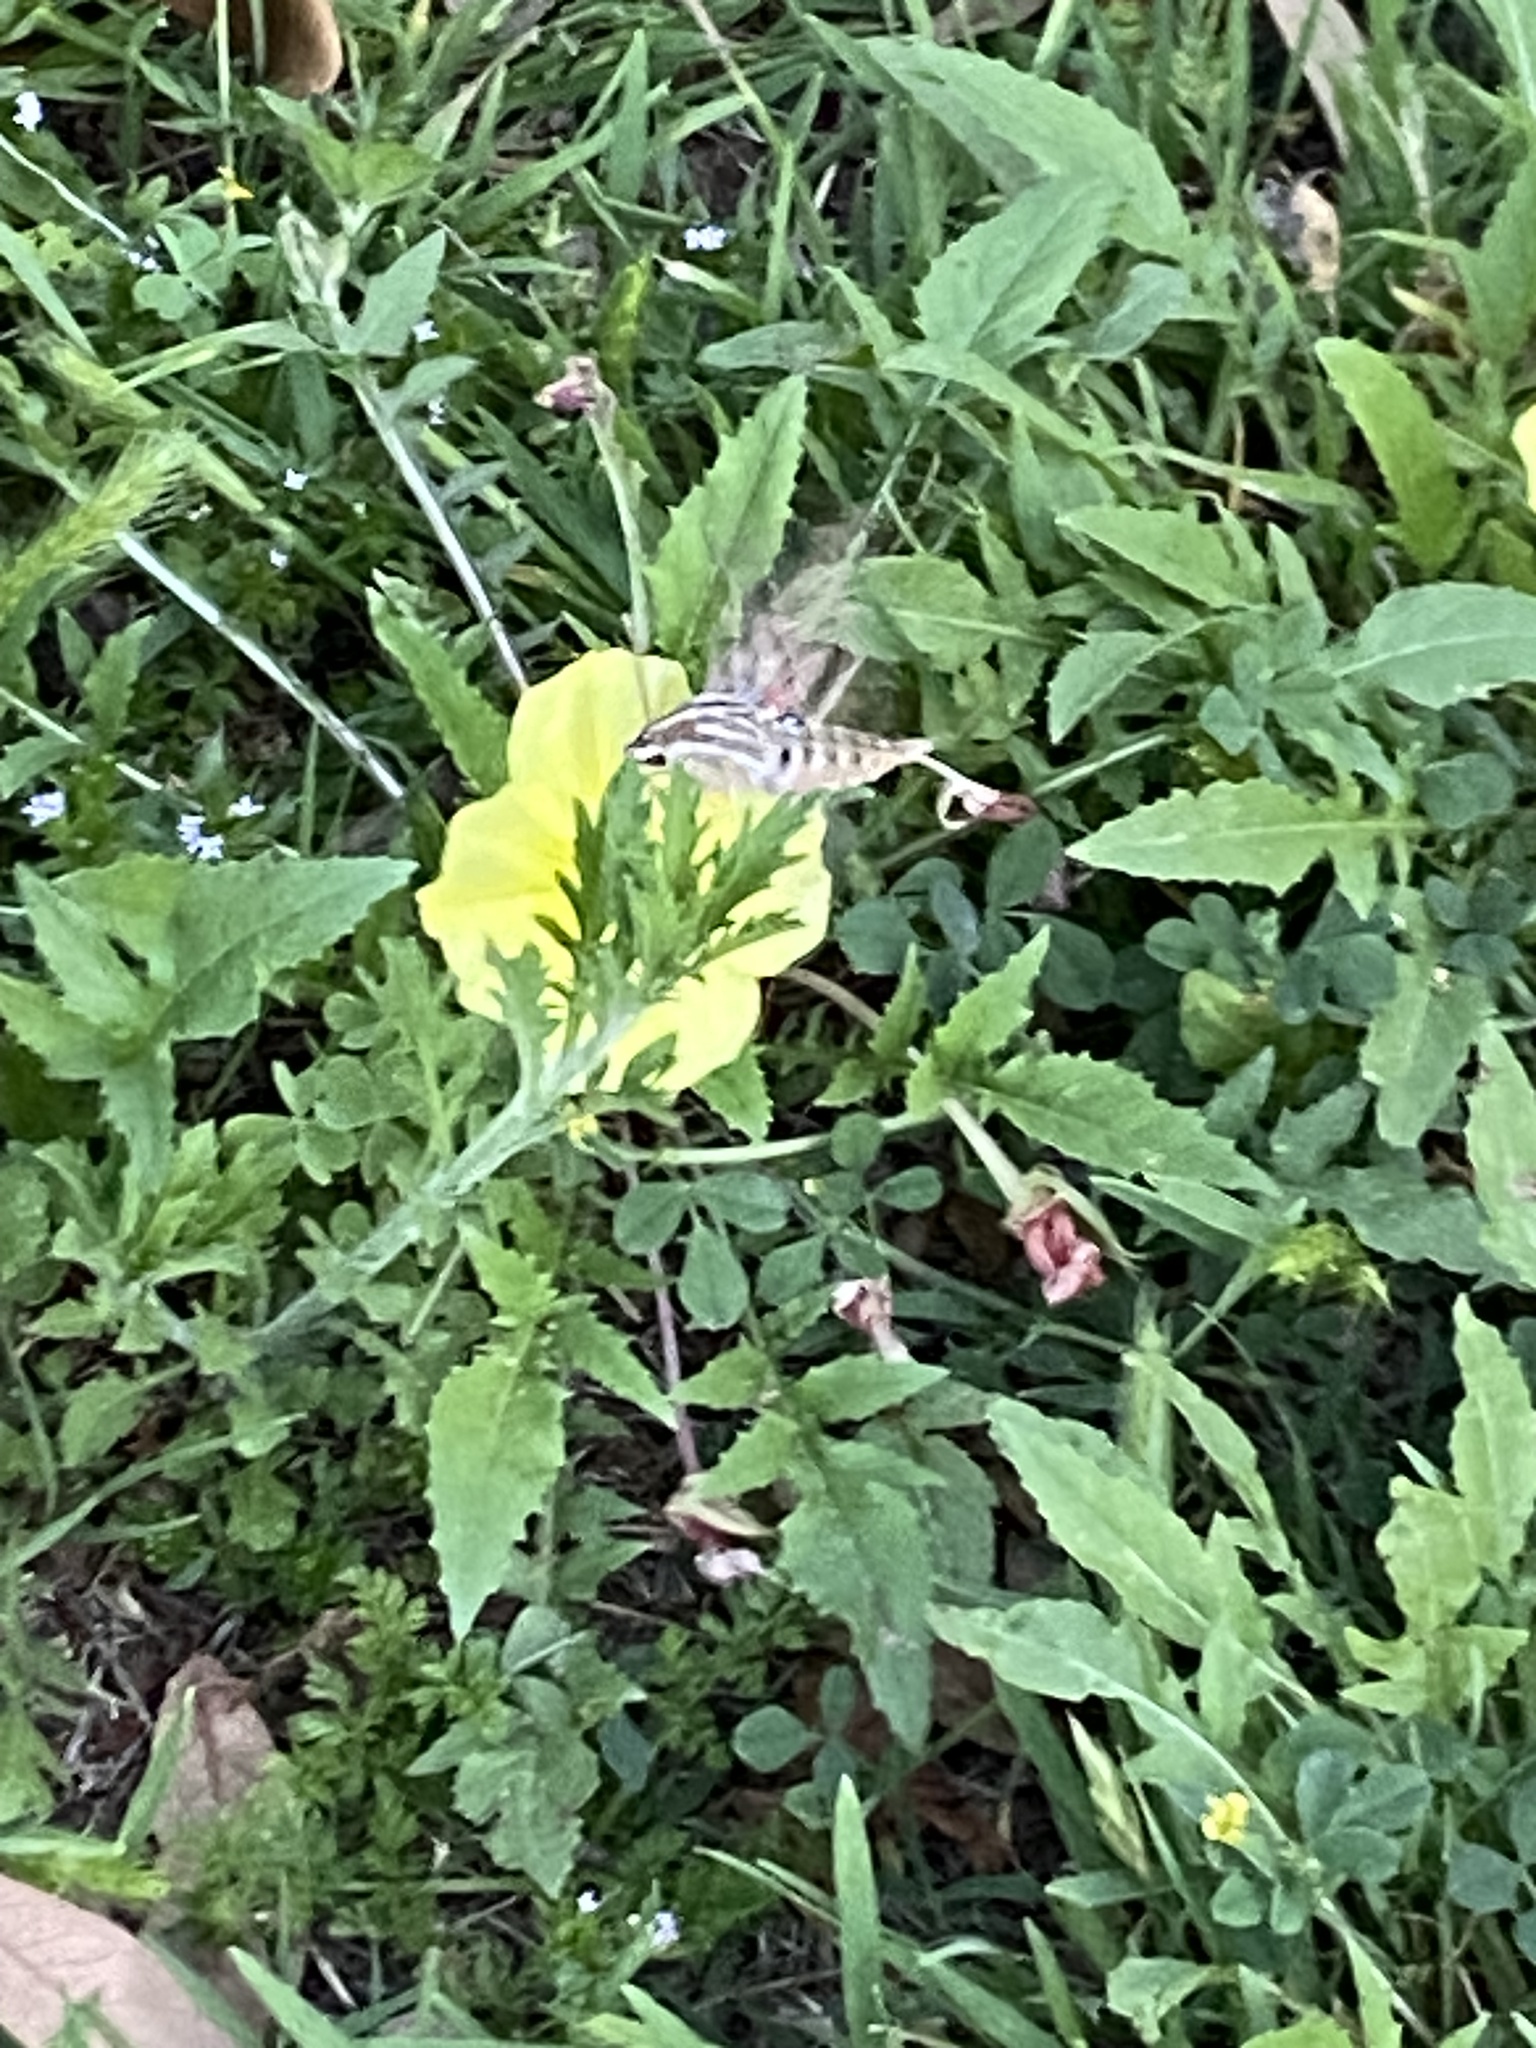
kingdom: Animalia
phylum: Arthropoda
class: Insecta
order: Lepidoptera
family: Sphingidae
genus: Hyles
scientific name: Hyles lineata
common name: White-lined sphinx
